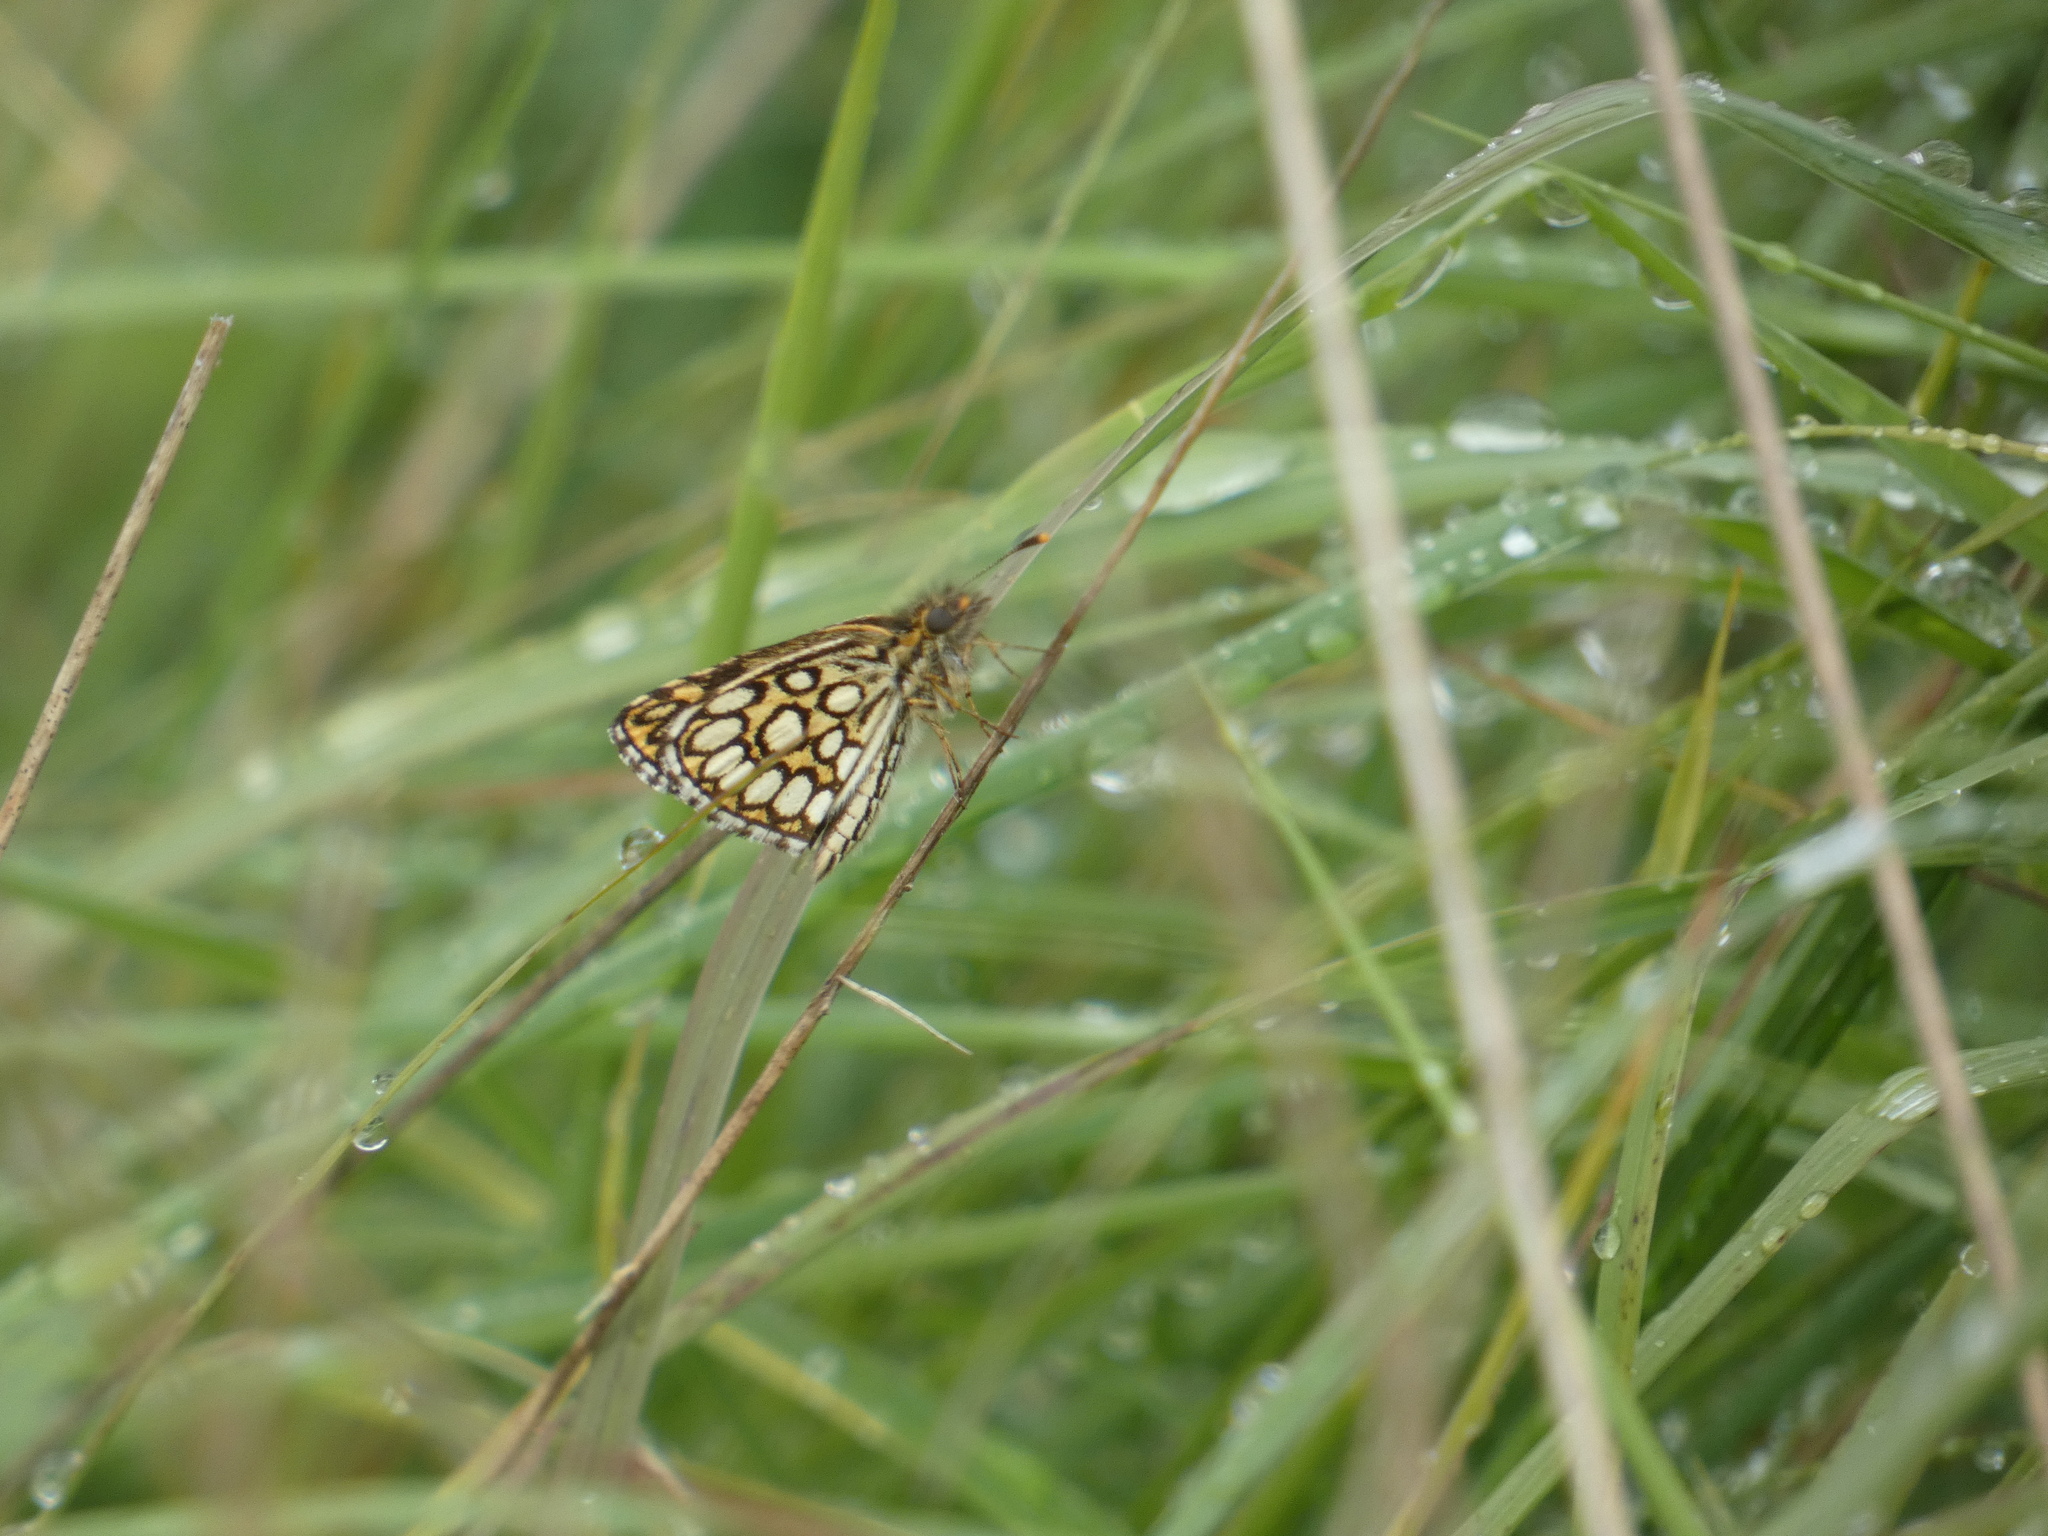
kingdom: Animalia
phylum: Arthropoda
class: Insecta
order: Lepidoptera
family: Hesperiidae
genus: Heteropterus
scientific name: Heteropterus morpheus
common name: Large chequered skipper
